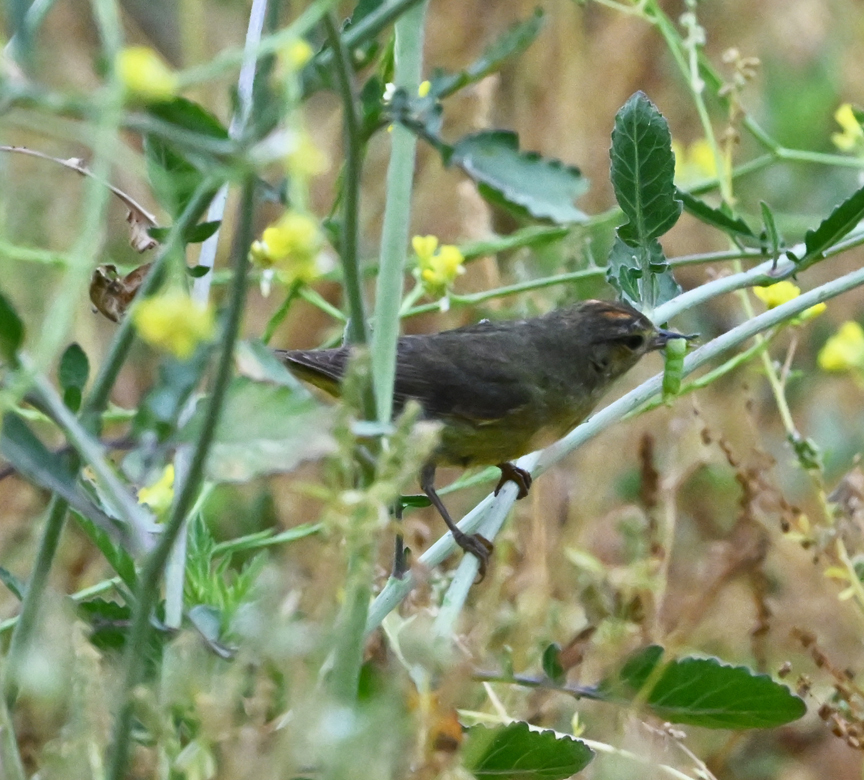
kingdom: Animalia
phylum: Chordata
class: Aves
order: Passeriformes
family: Parulidae
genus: Leiothlypis
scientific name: Leiothlypis celata
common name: Orange-crowned warbler
